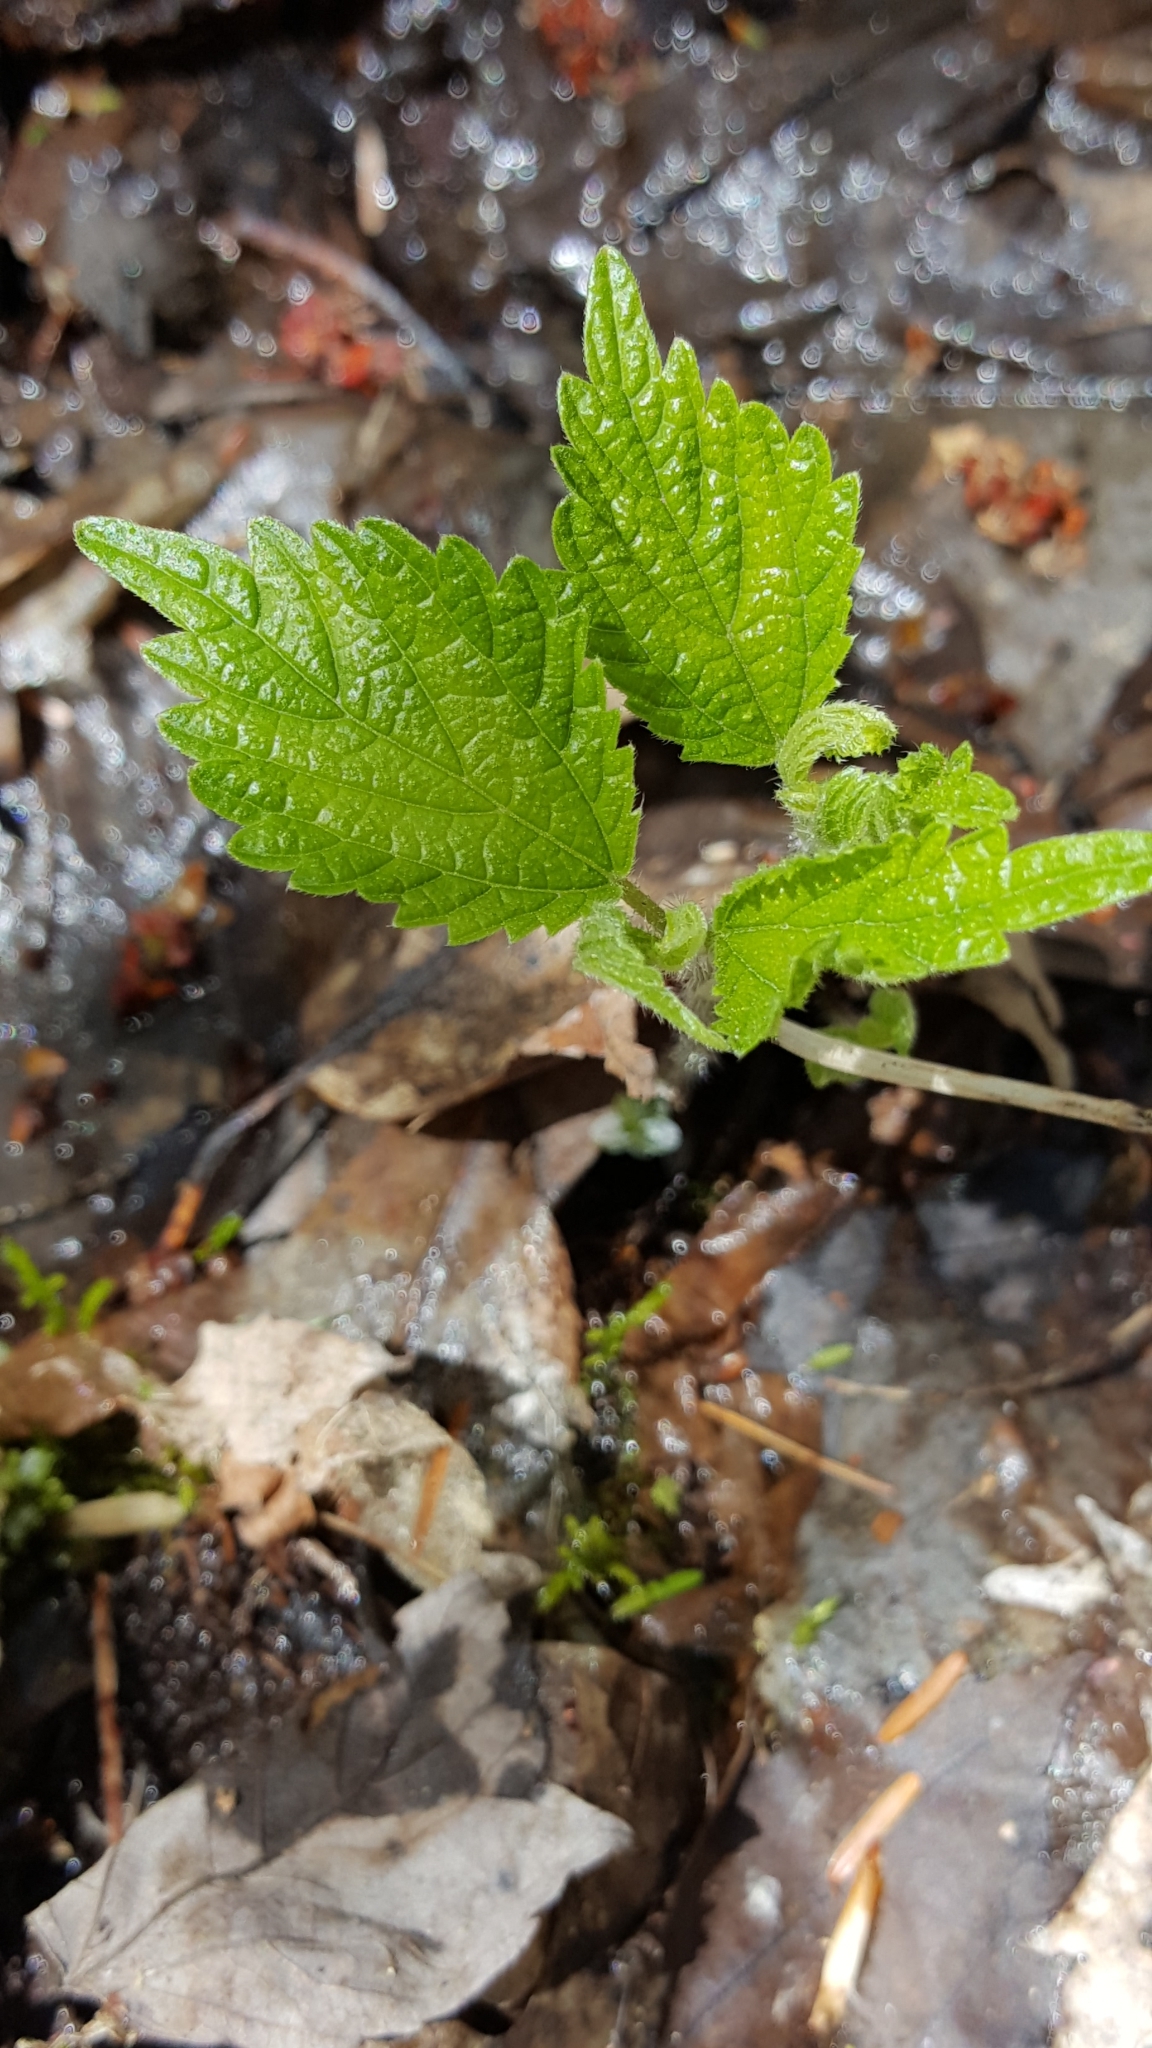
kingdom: Plantae
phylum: Tracheophyta
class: Magnoliopsida
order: Rosales
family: Urticaceae
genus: Pilea
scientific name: Pilea pumila
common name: Clearweed
